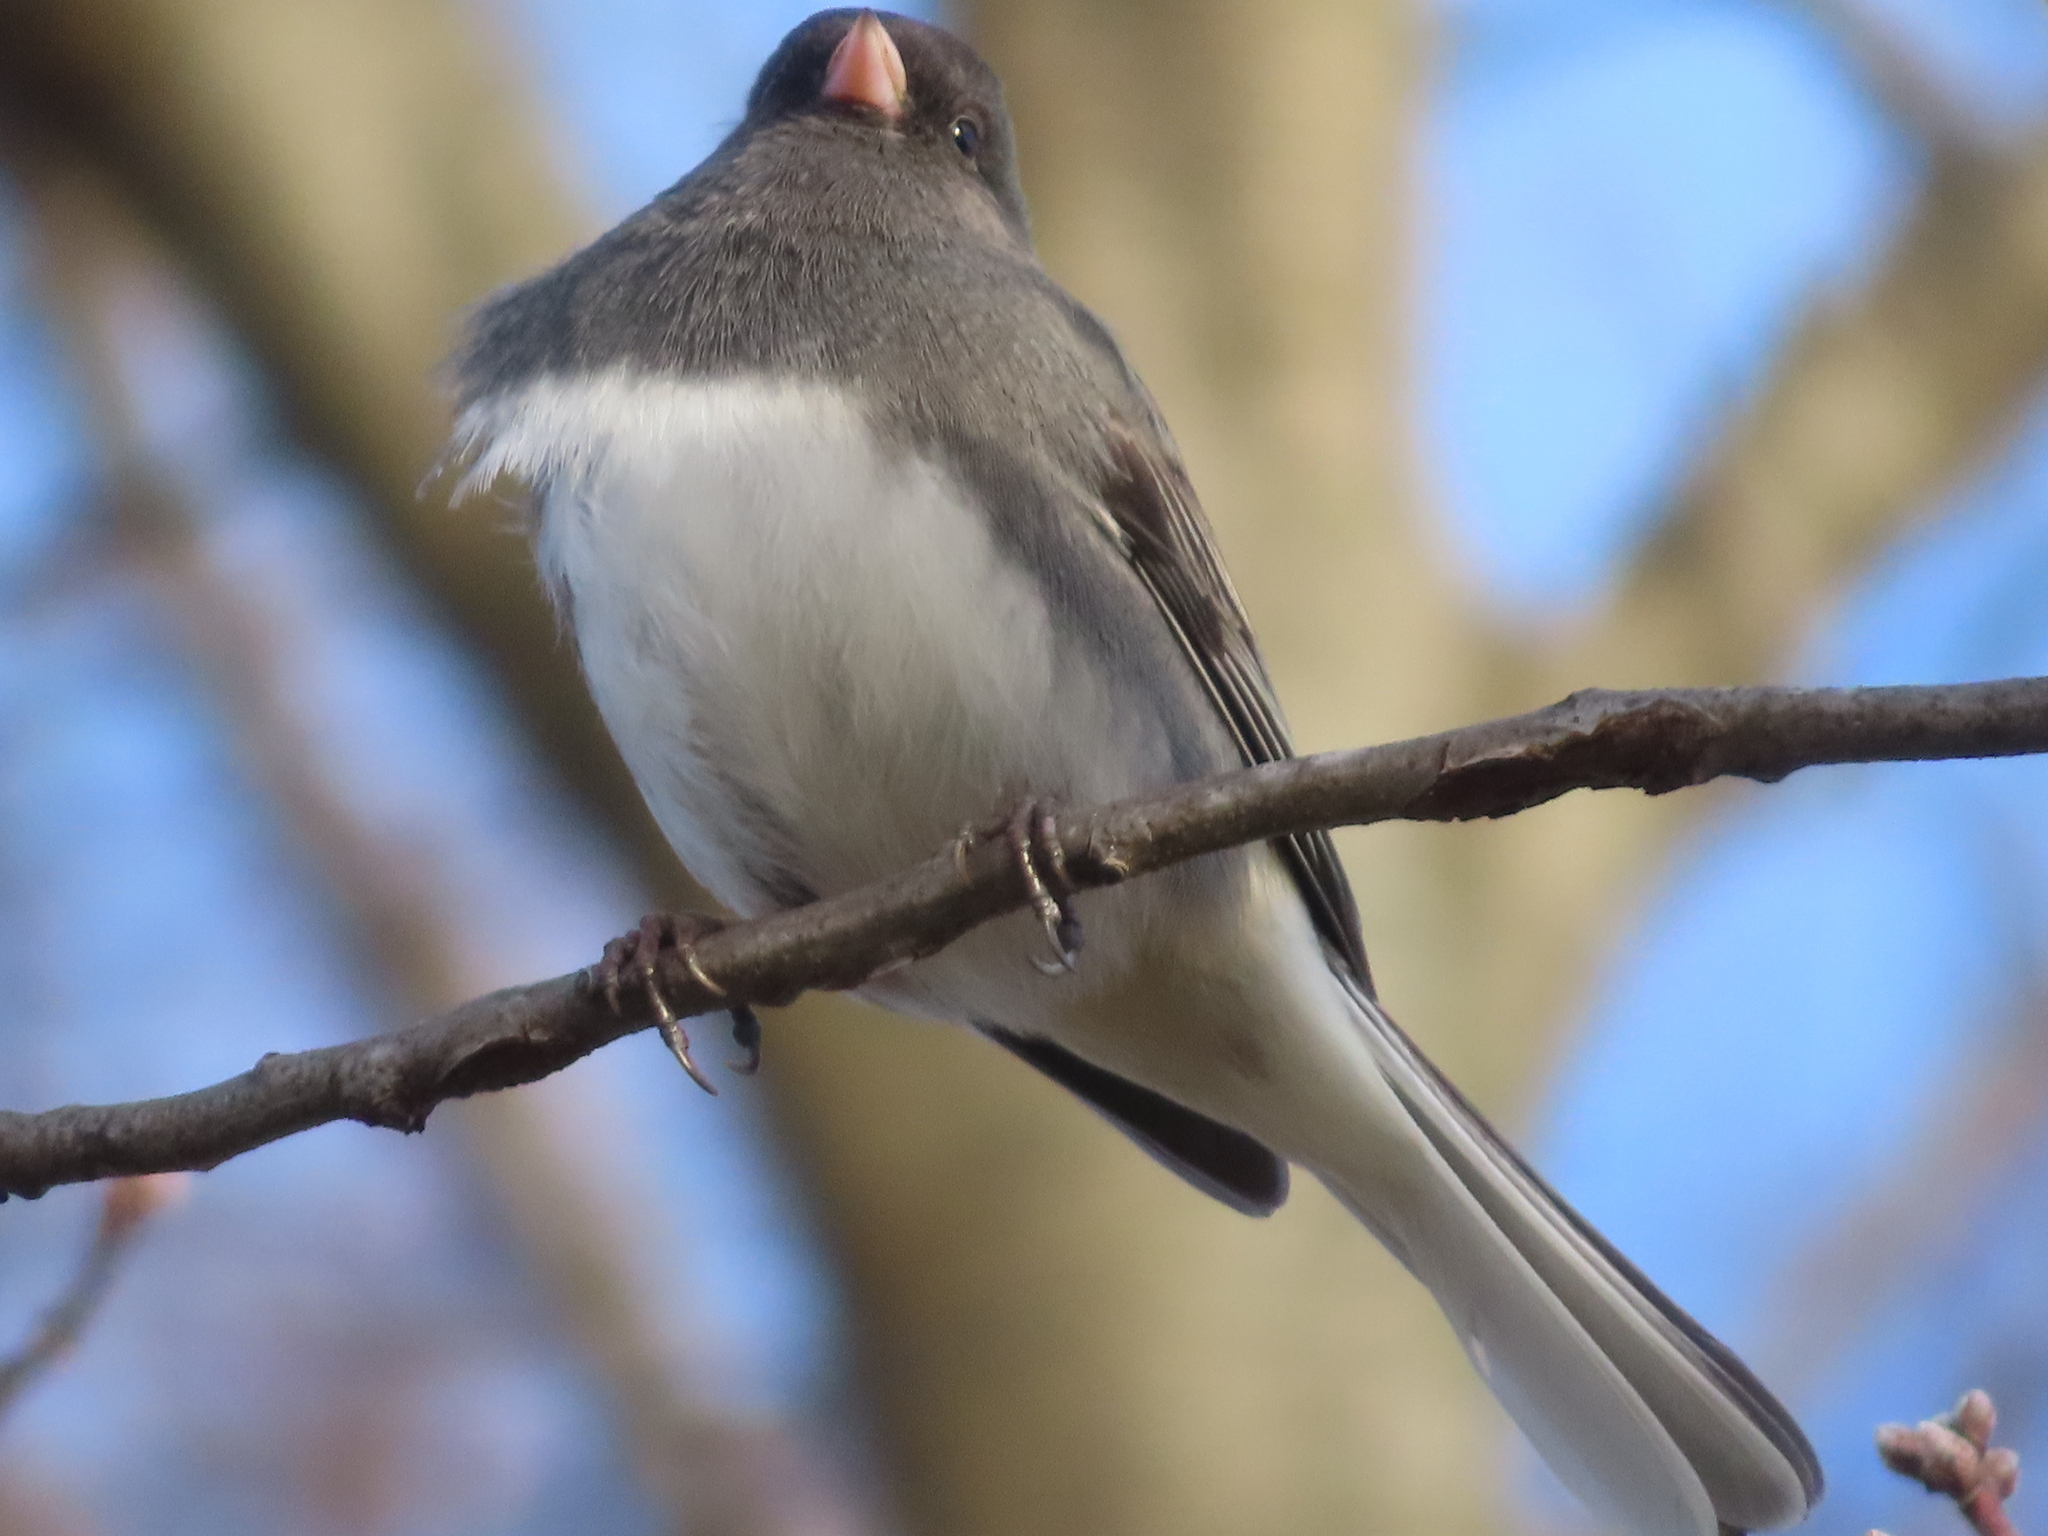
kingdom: Animalia
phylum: Chordata
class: Aves
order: Passeriformes
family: Passerellidae
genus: Junco
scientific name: Junco hyemalis
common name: Dark-eyed junco
